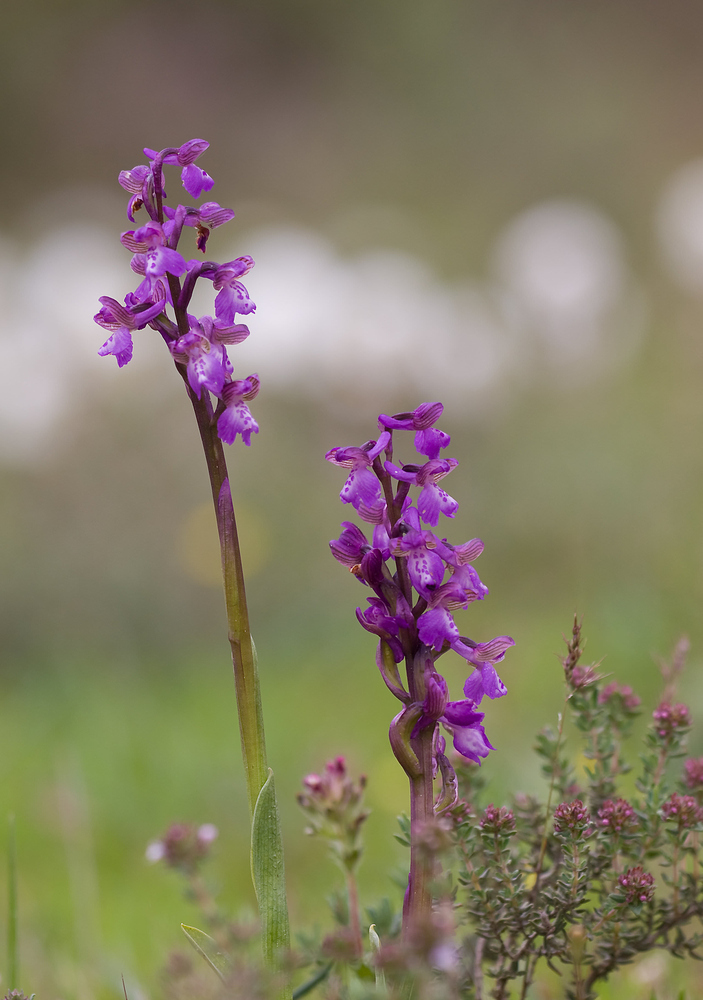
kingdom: Plantae
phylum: Tracheophyta
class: Liliopsida
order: Asparagales
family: Orchidaceae
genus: Anacamptis
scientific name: Anacamptis morio
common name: Green-winged orchid
